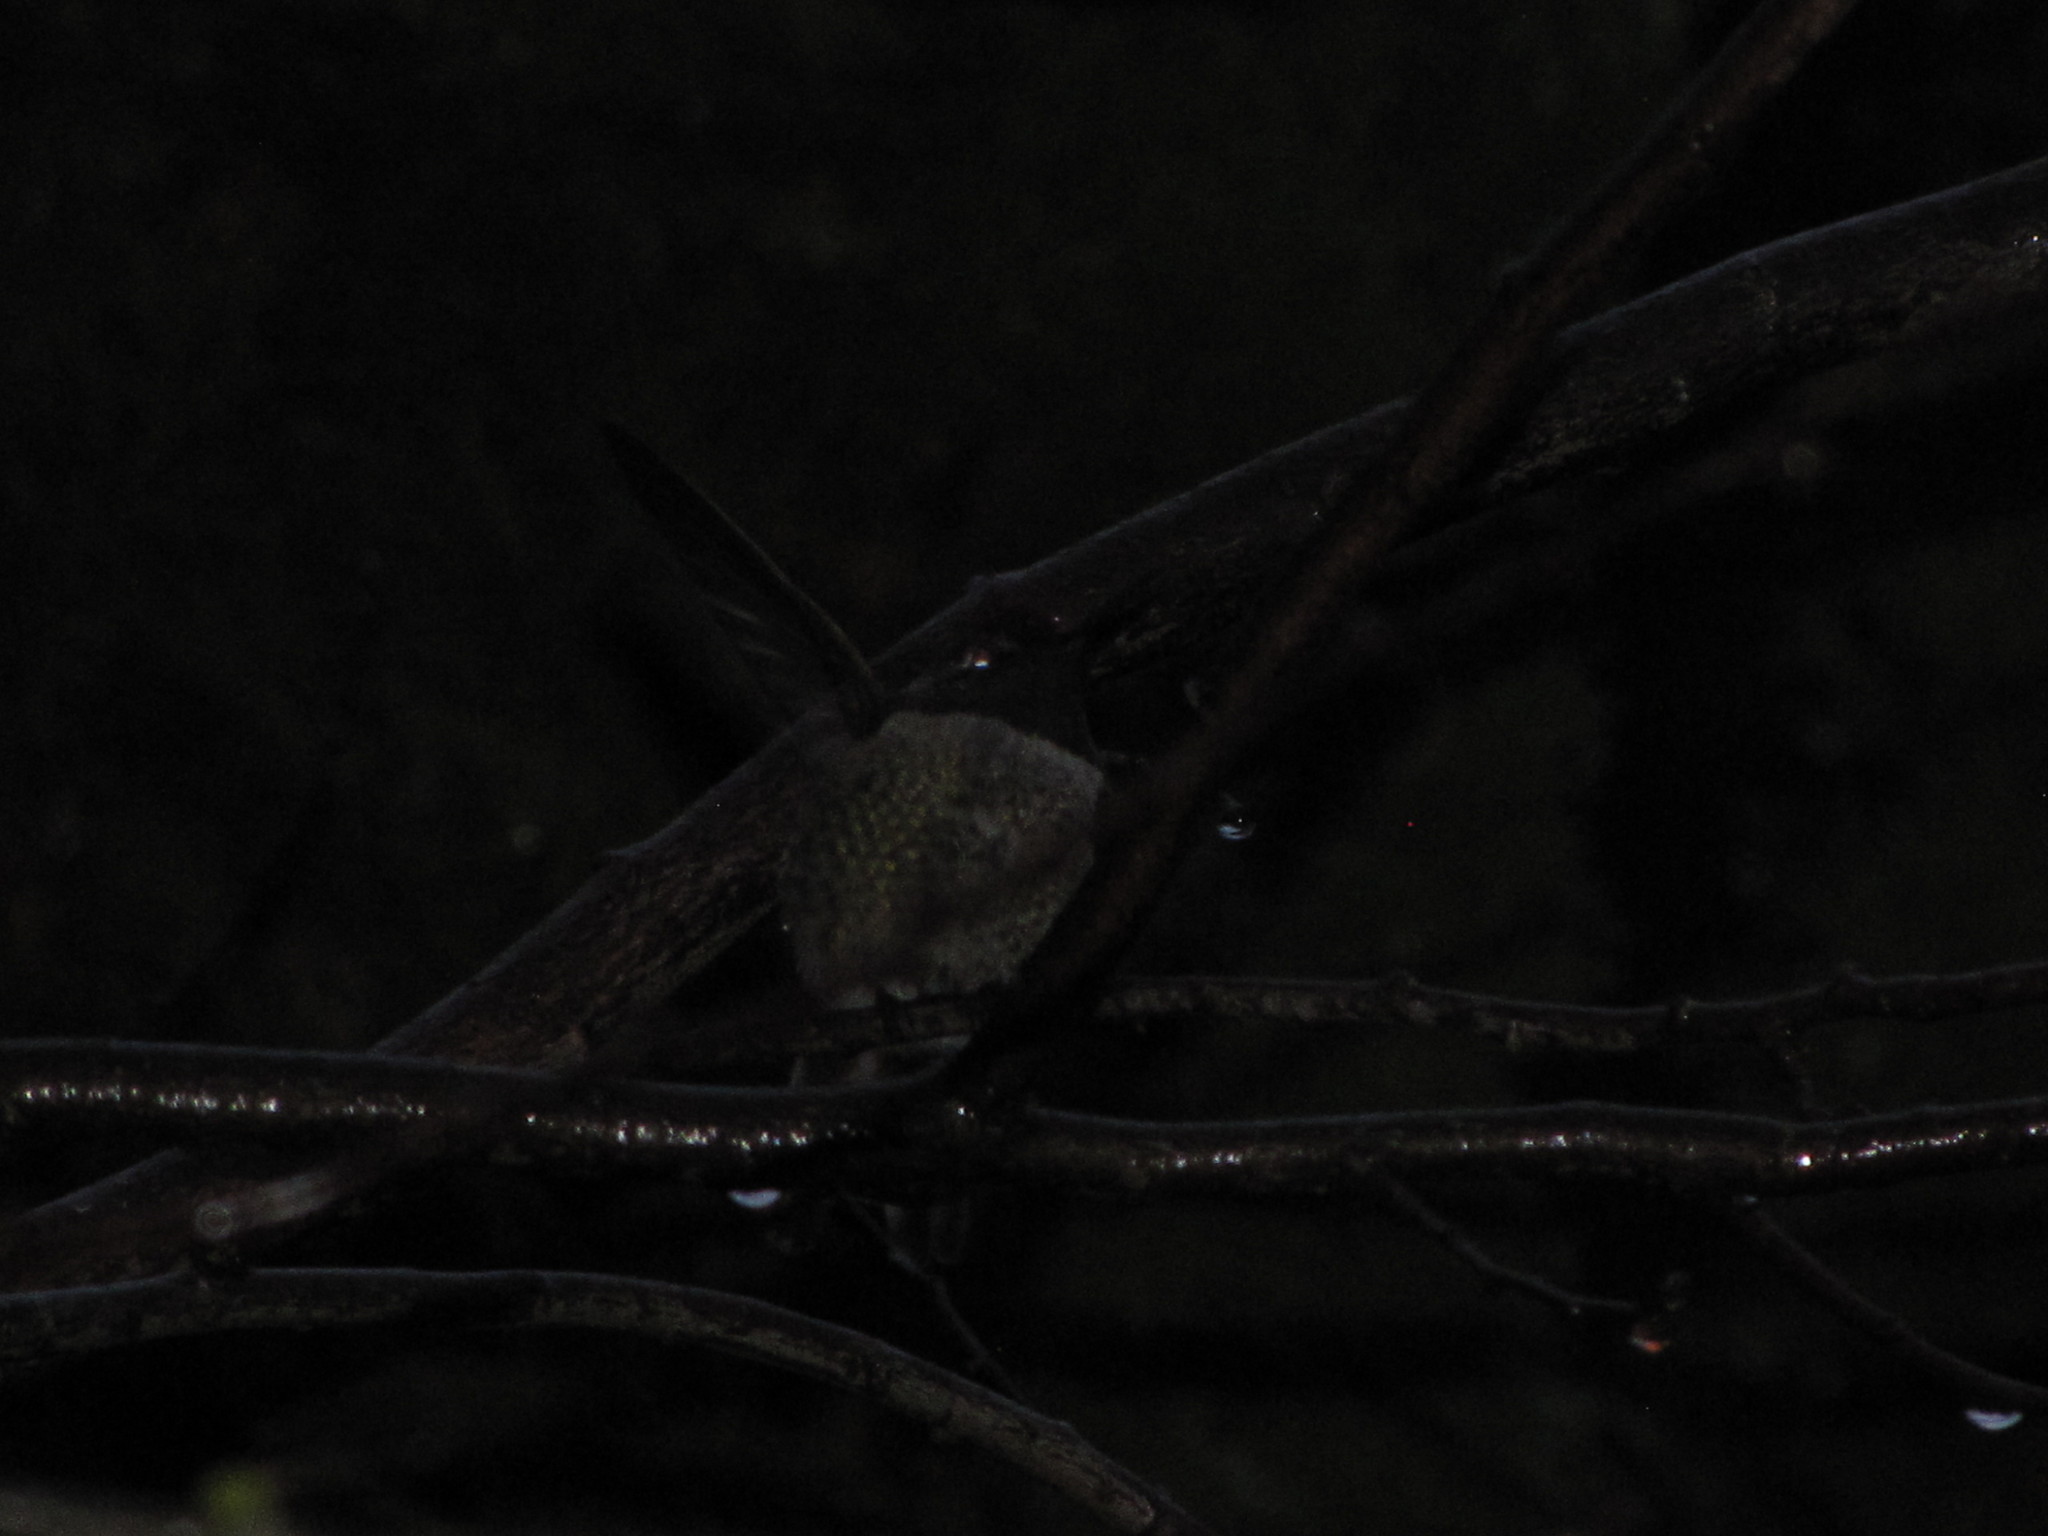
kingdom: Animalia
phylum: Chordata
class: Aves
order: Apodiformes
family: Trochilidae
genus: Calypte
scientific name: Calypte anna
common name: Anna's hummingbird
